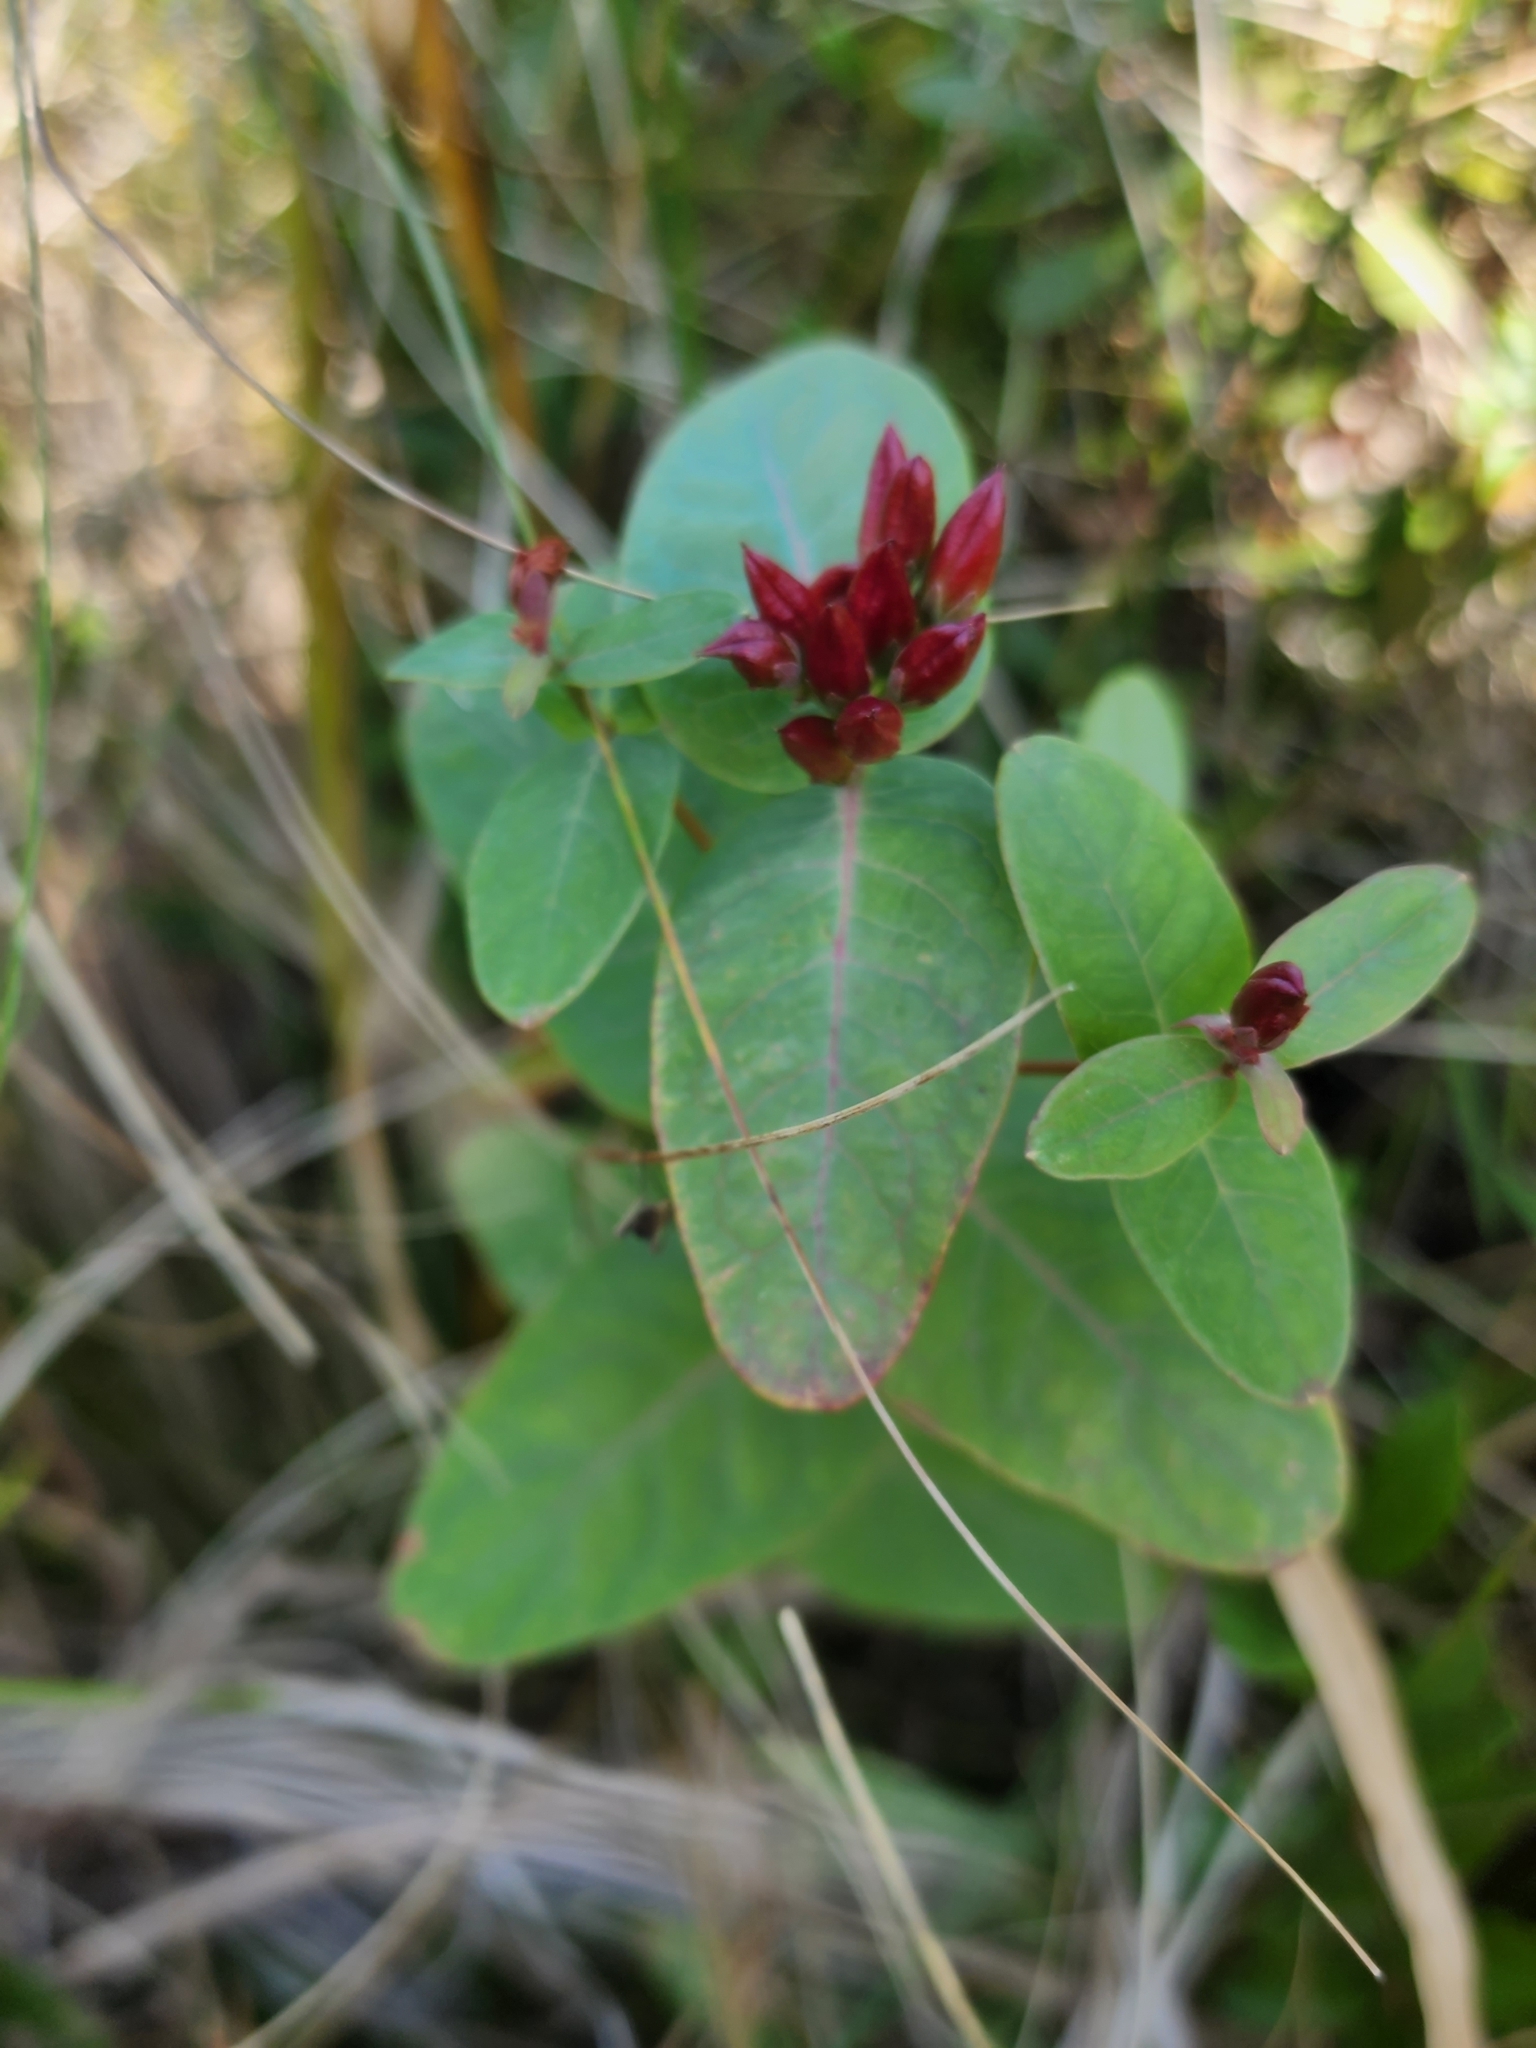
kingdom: Plantae
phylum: Tracheophyta
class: Magnoliopsida
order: Malpighiales
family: Hypericaceae
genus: Triadenum
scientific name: Triadenum fraseri
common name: Fraser's marsh st. johnswort
